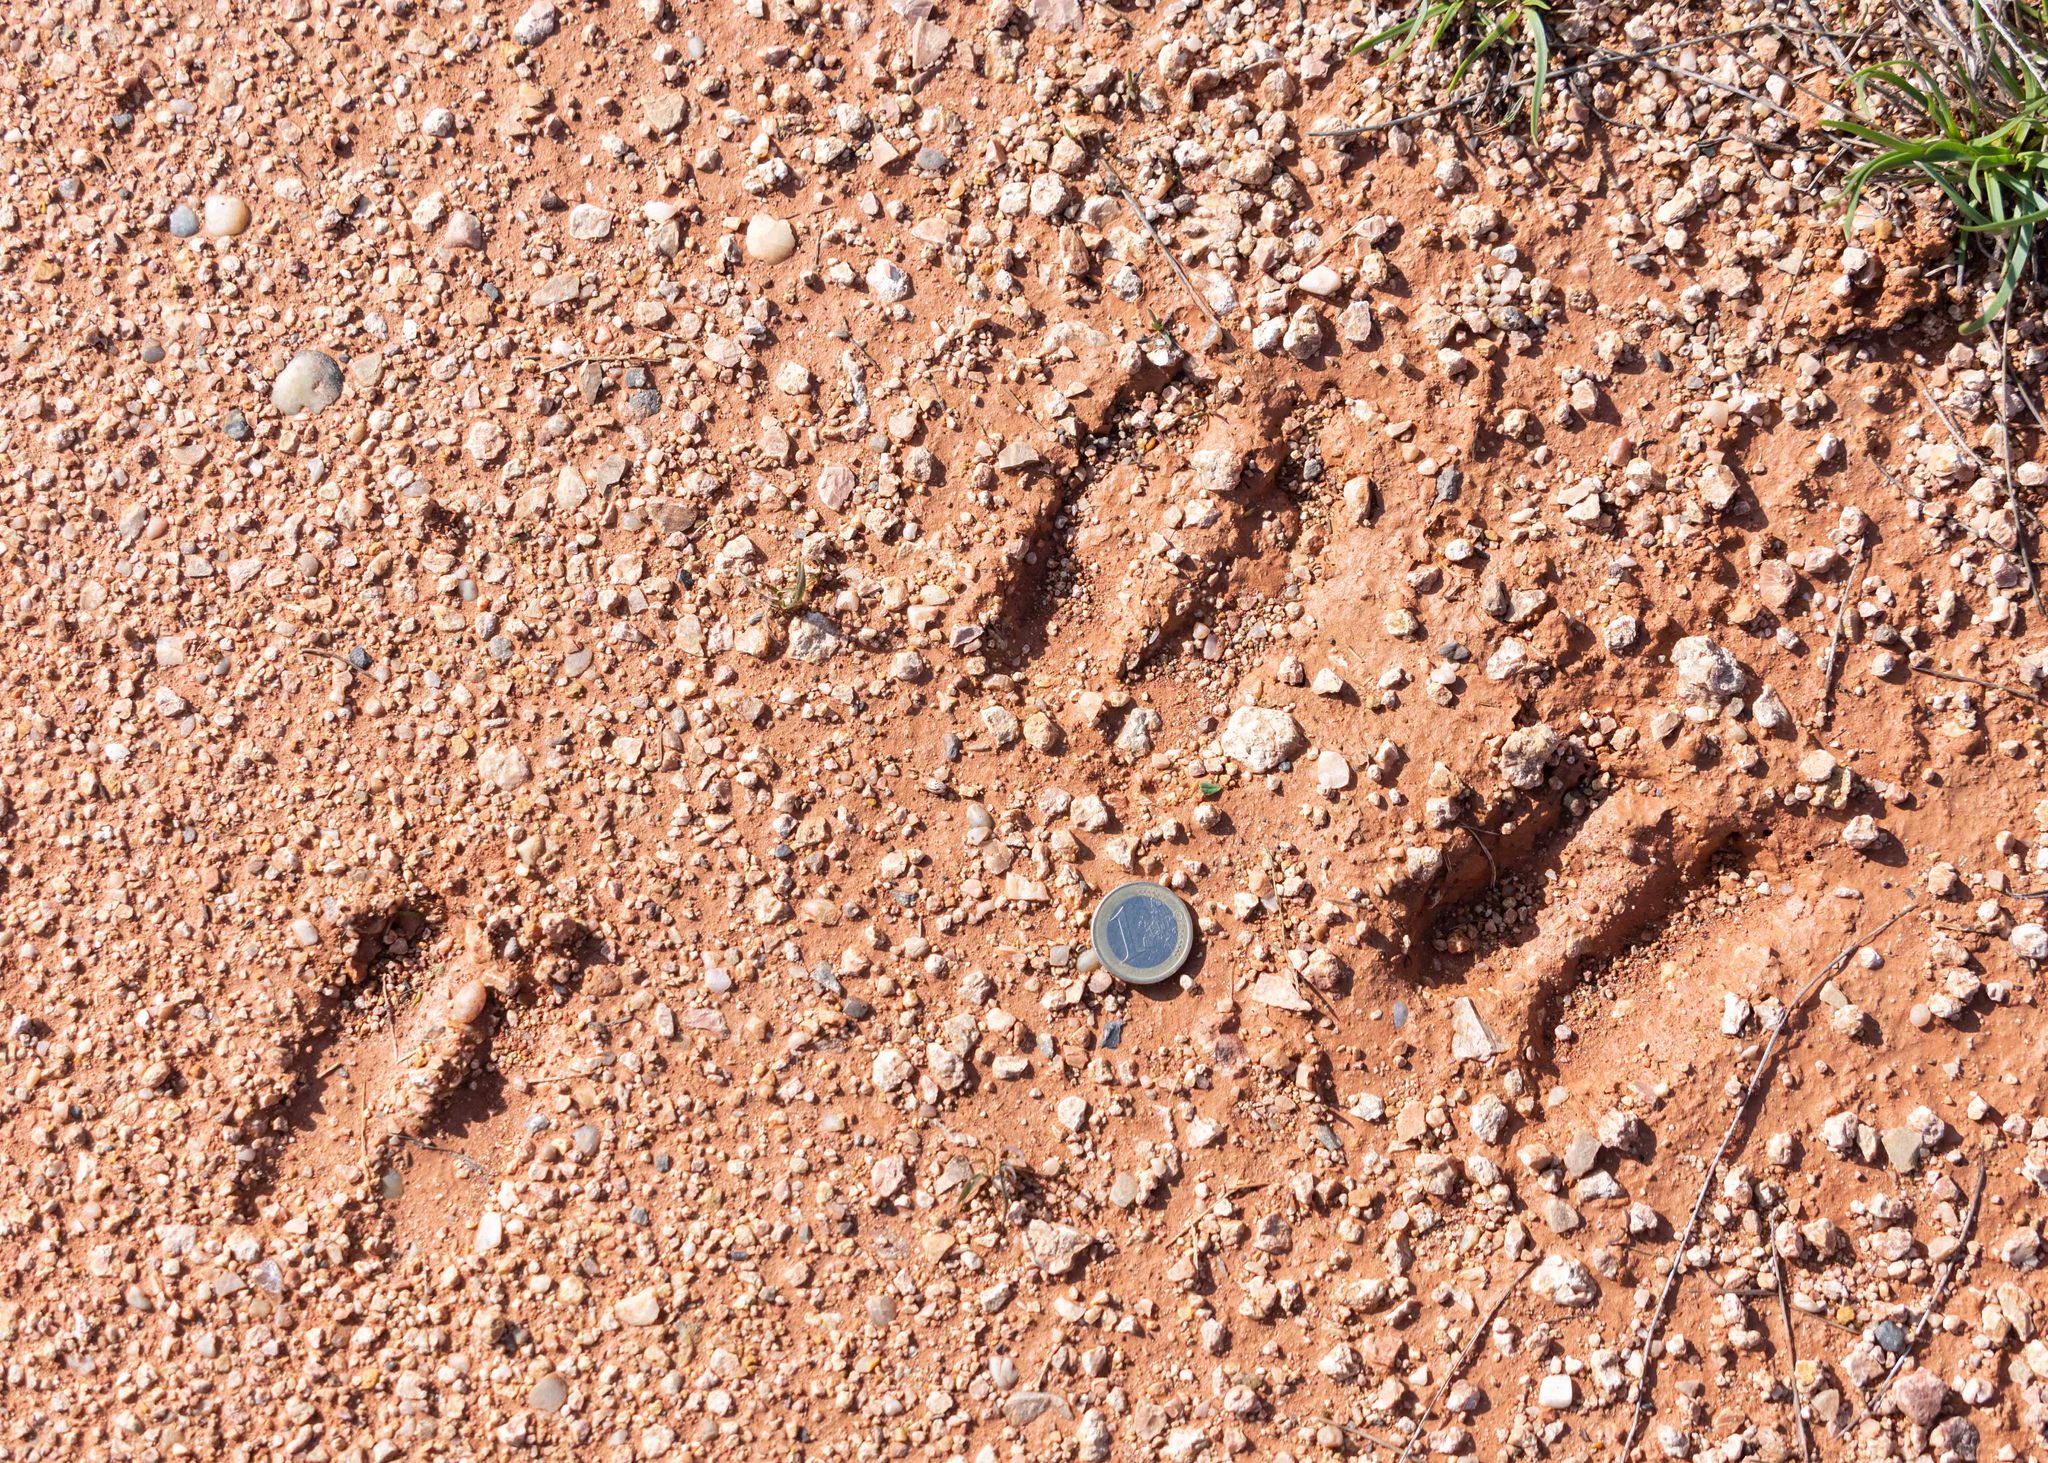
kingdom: Animalia
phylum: Chordata
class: Mammalia
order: Artiodactyla
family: Cervidae
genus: Cervus
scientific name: Cervus elaphus
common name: Red deer
